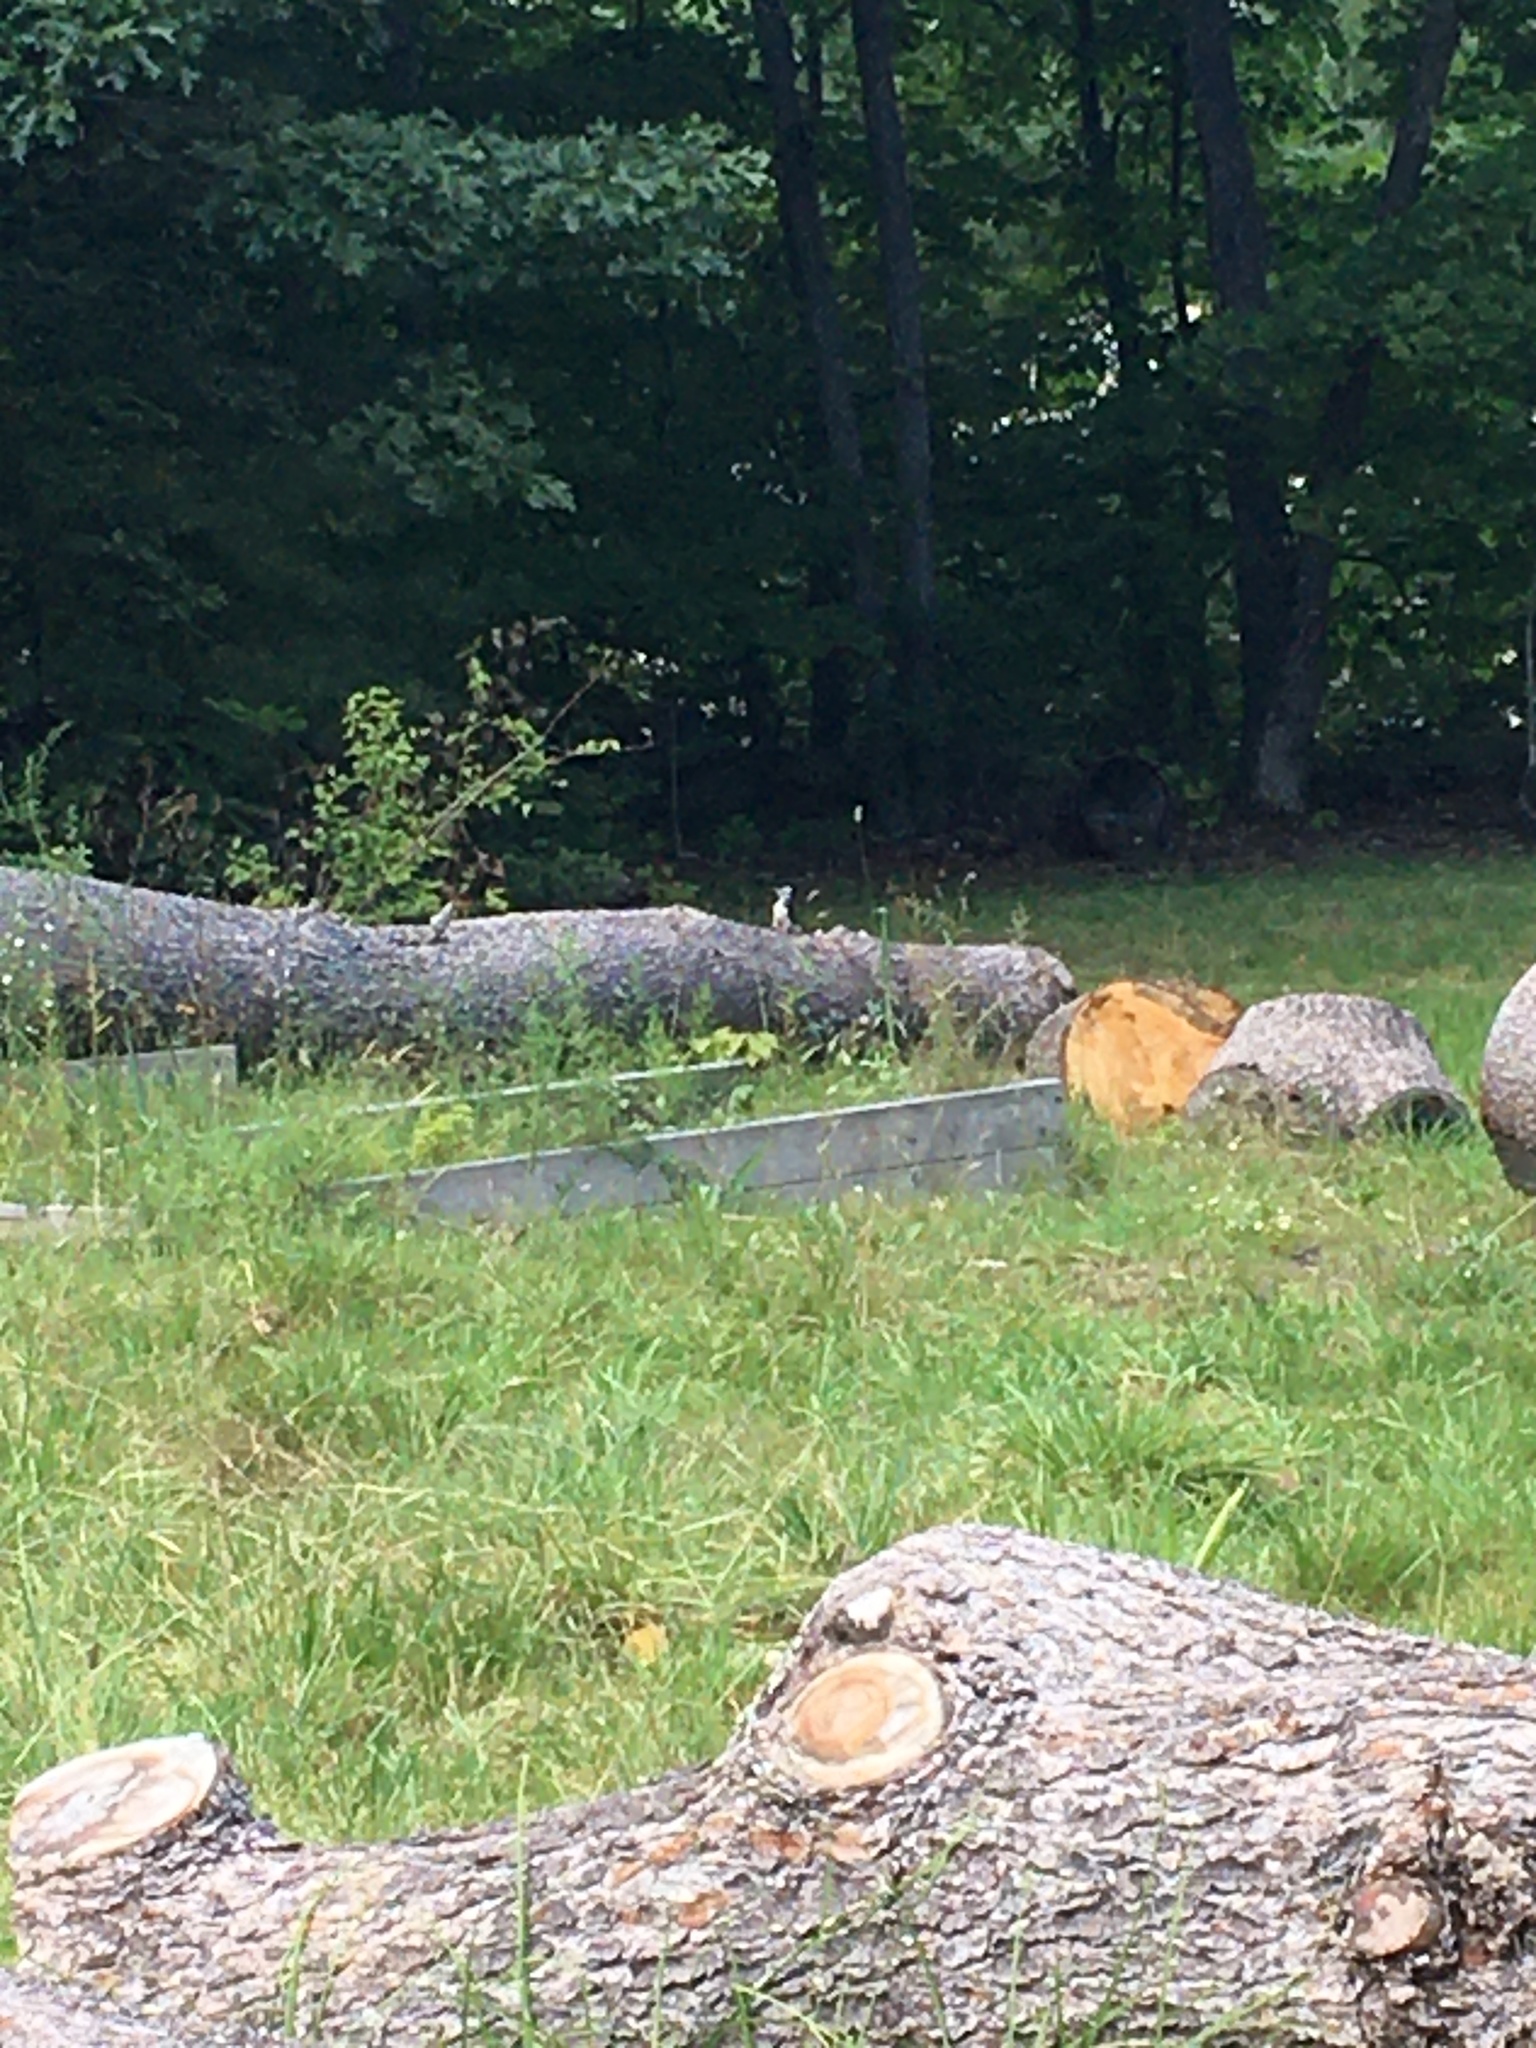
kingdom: Animalia
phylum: Chordata
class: Aves
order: Piciformes
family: Picidae
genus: Dryobates
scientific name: Dryobates
